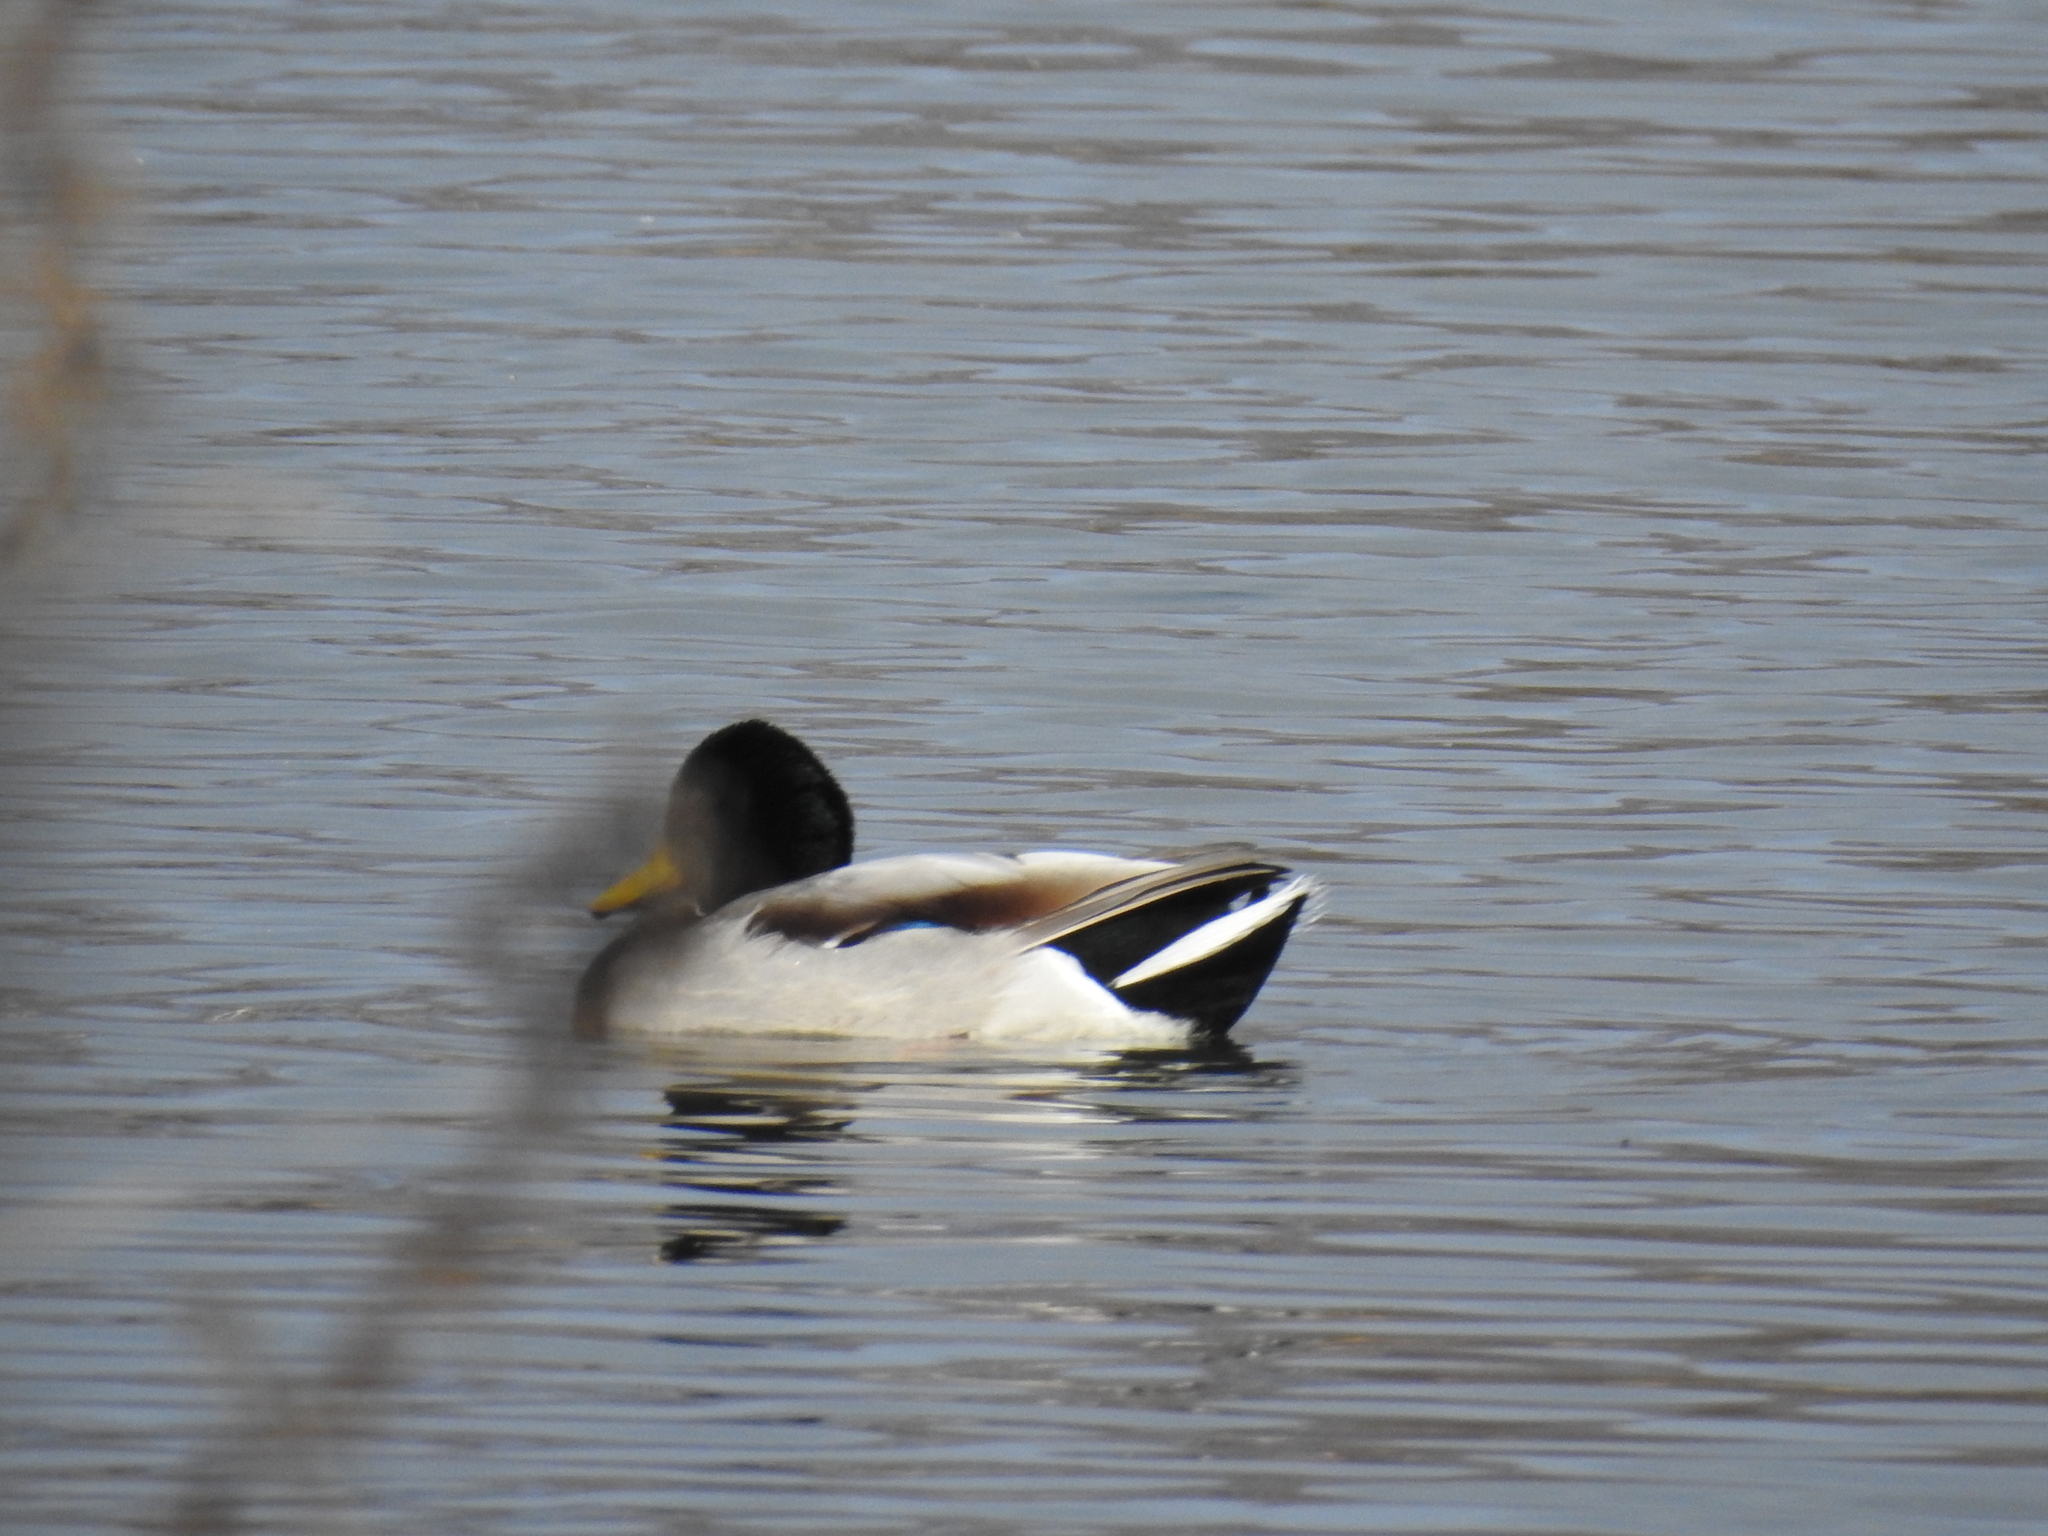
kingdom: Animalia
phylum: Chordata
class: Aves
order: Anseriformes
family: Anatidae
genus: Anas
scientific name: Anas platyrhynchos
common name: Mallard
